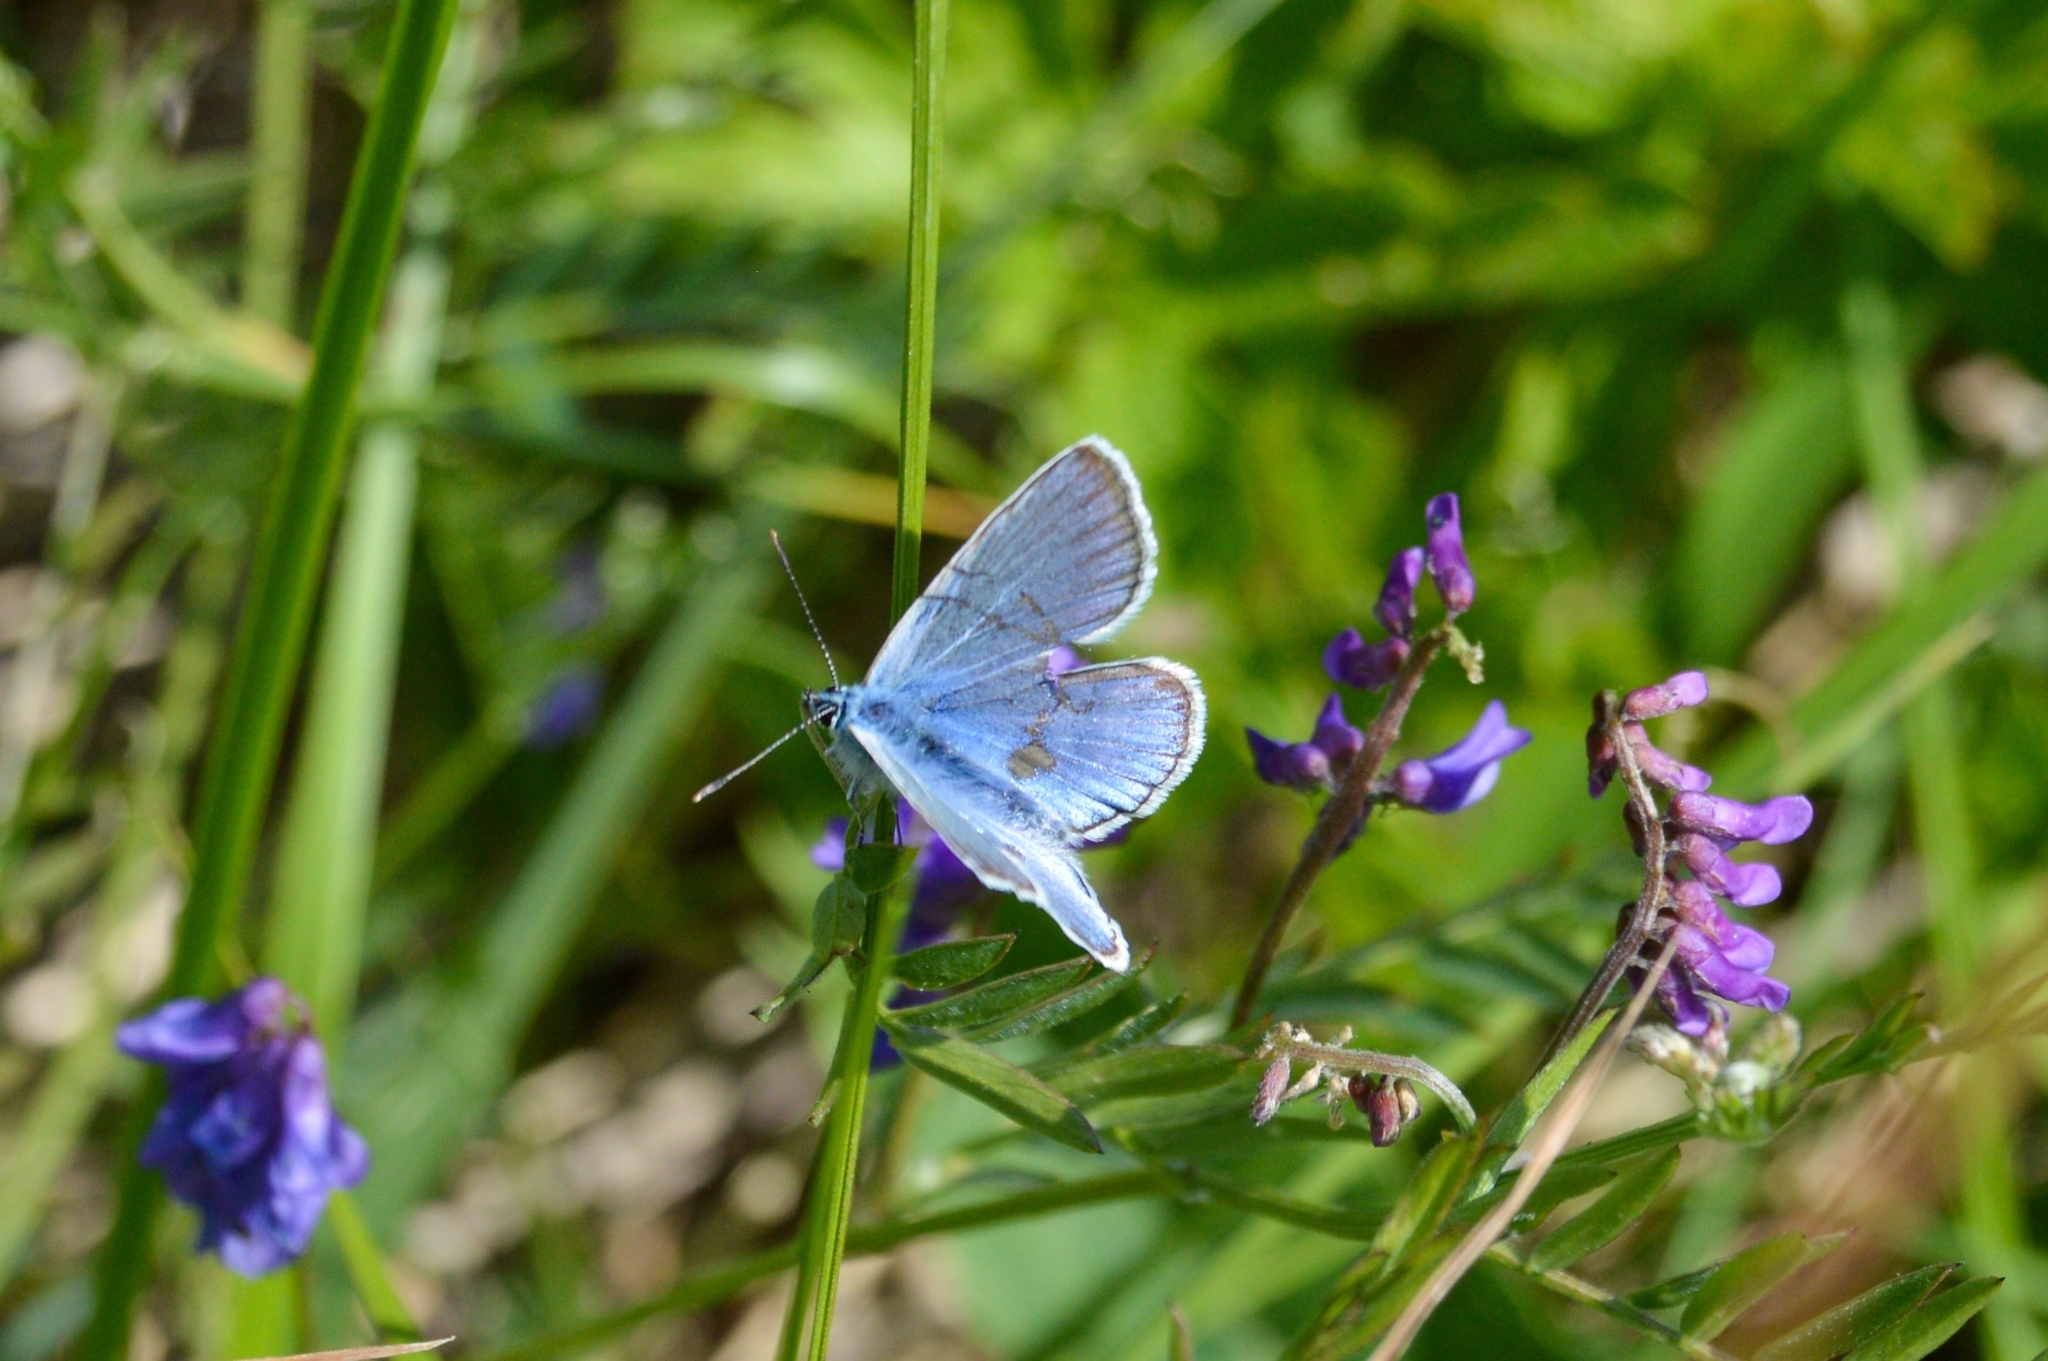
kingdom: Animalia
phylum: Arthropoda
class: Insecta
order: Lepidoptera
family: Lycaenidae
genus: Plebejus
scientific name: Plebejus amanda
